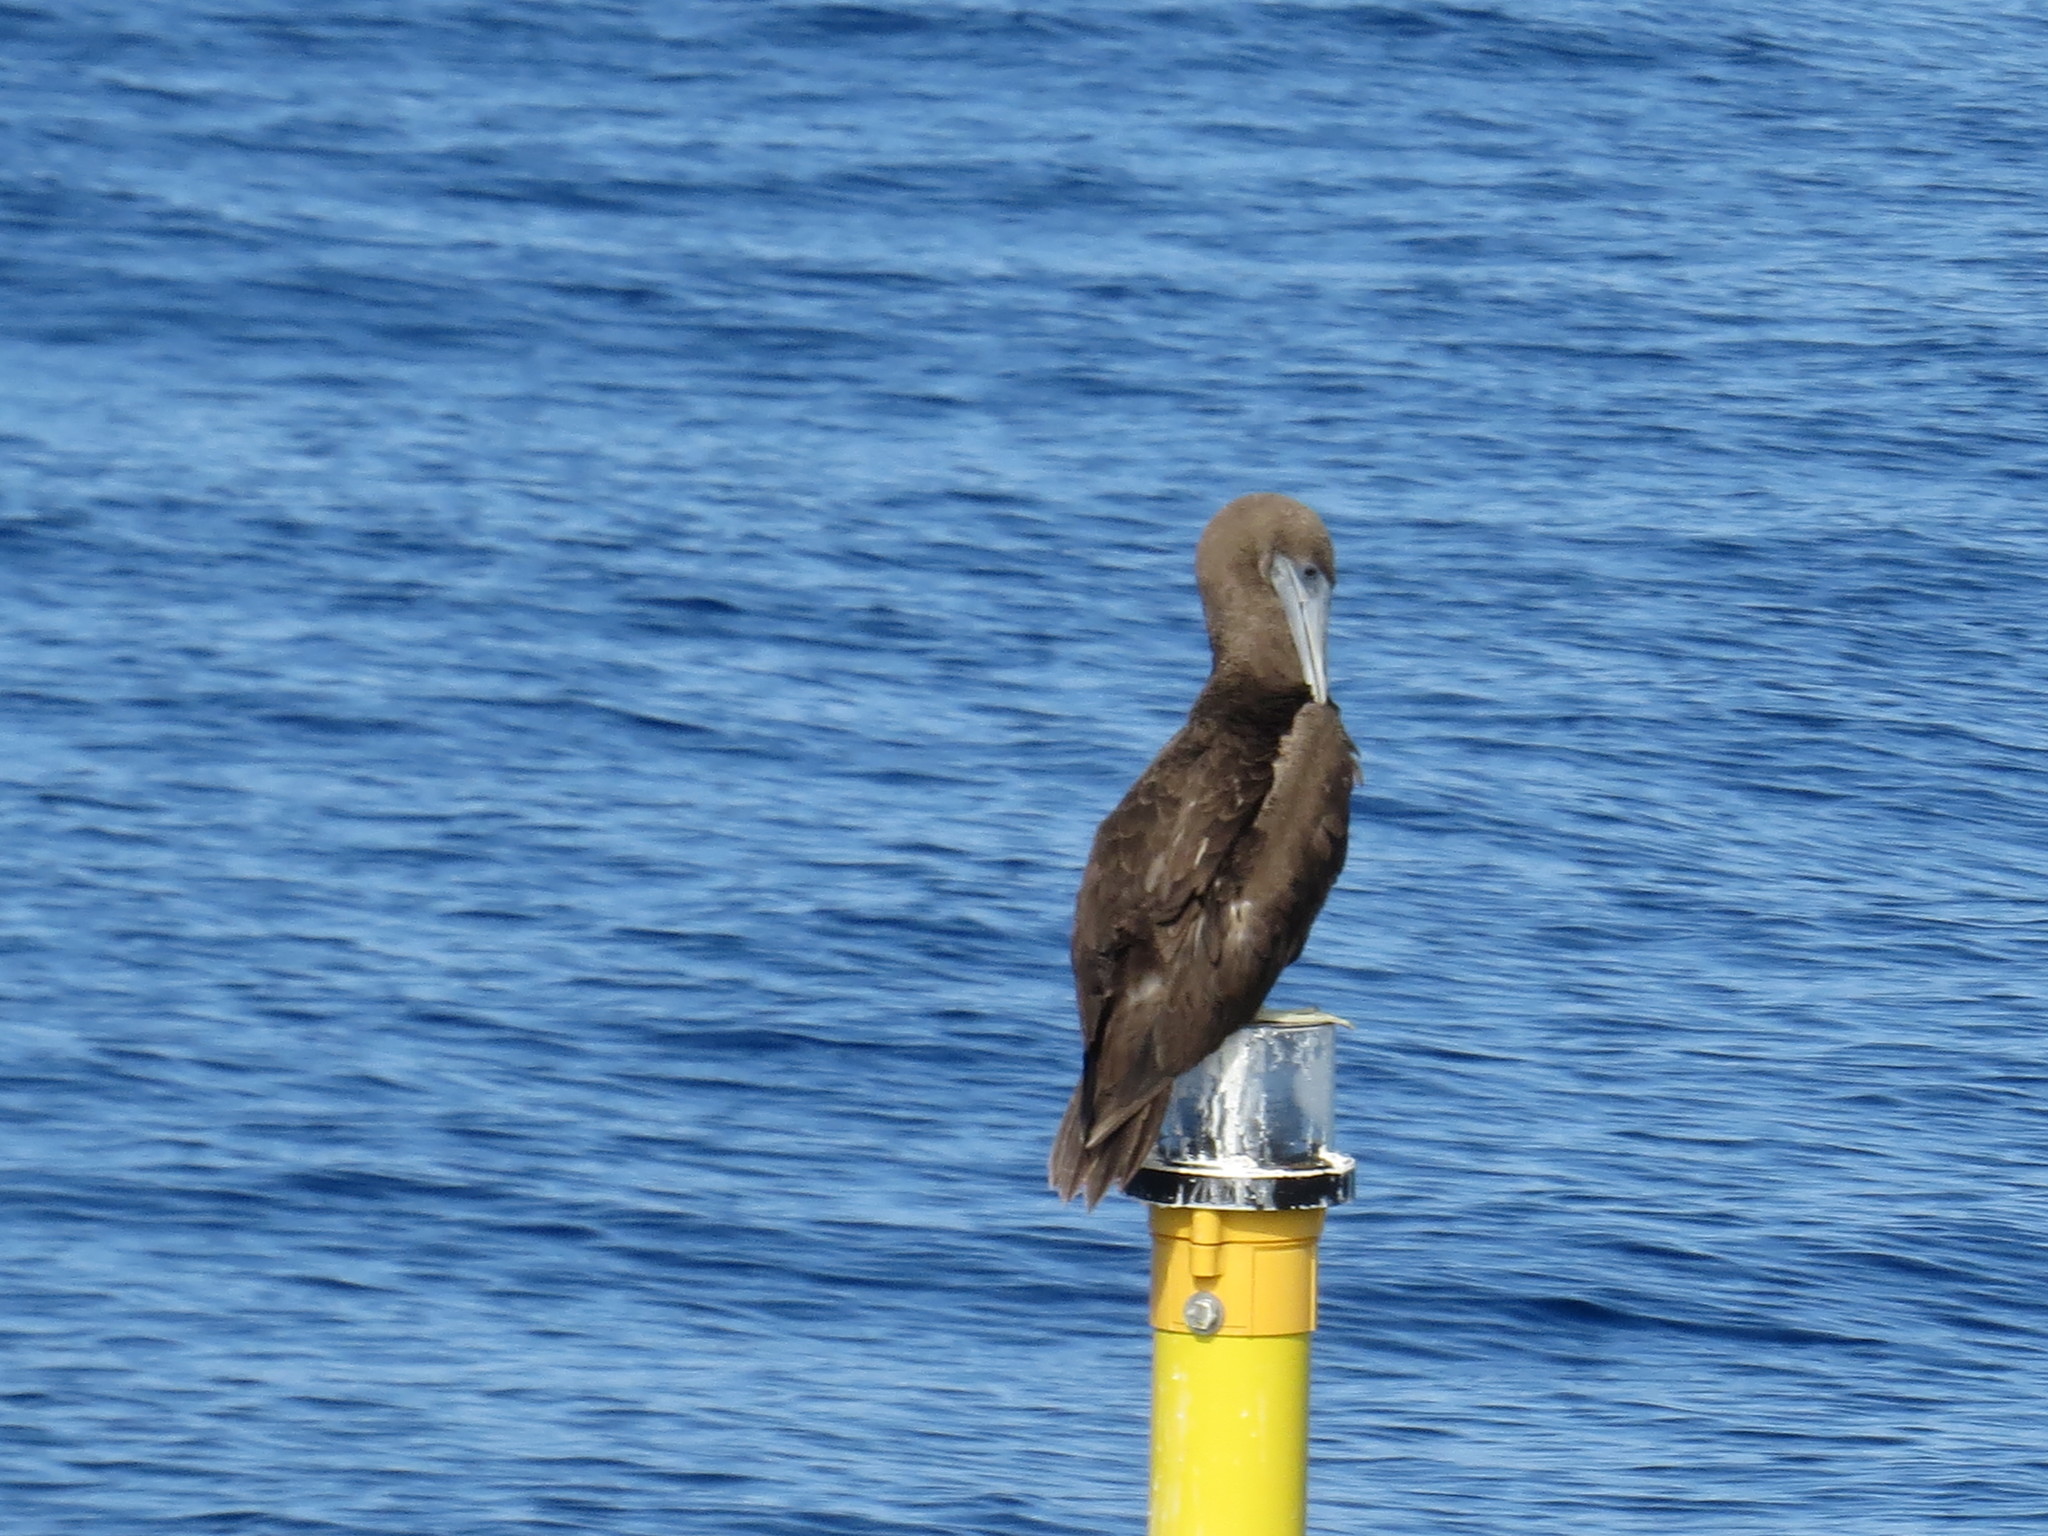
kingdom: Animalia
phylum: Chordata
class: Aves
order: Suliformes
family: Sulidae
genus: Sula
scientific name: Sula leucogaster
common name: Brown booby
